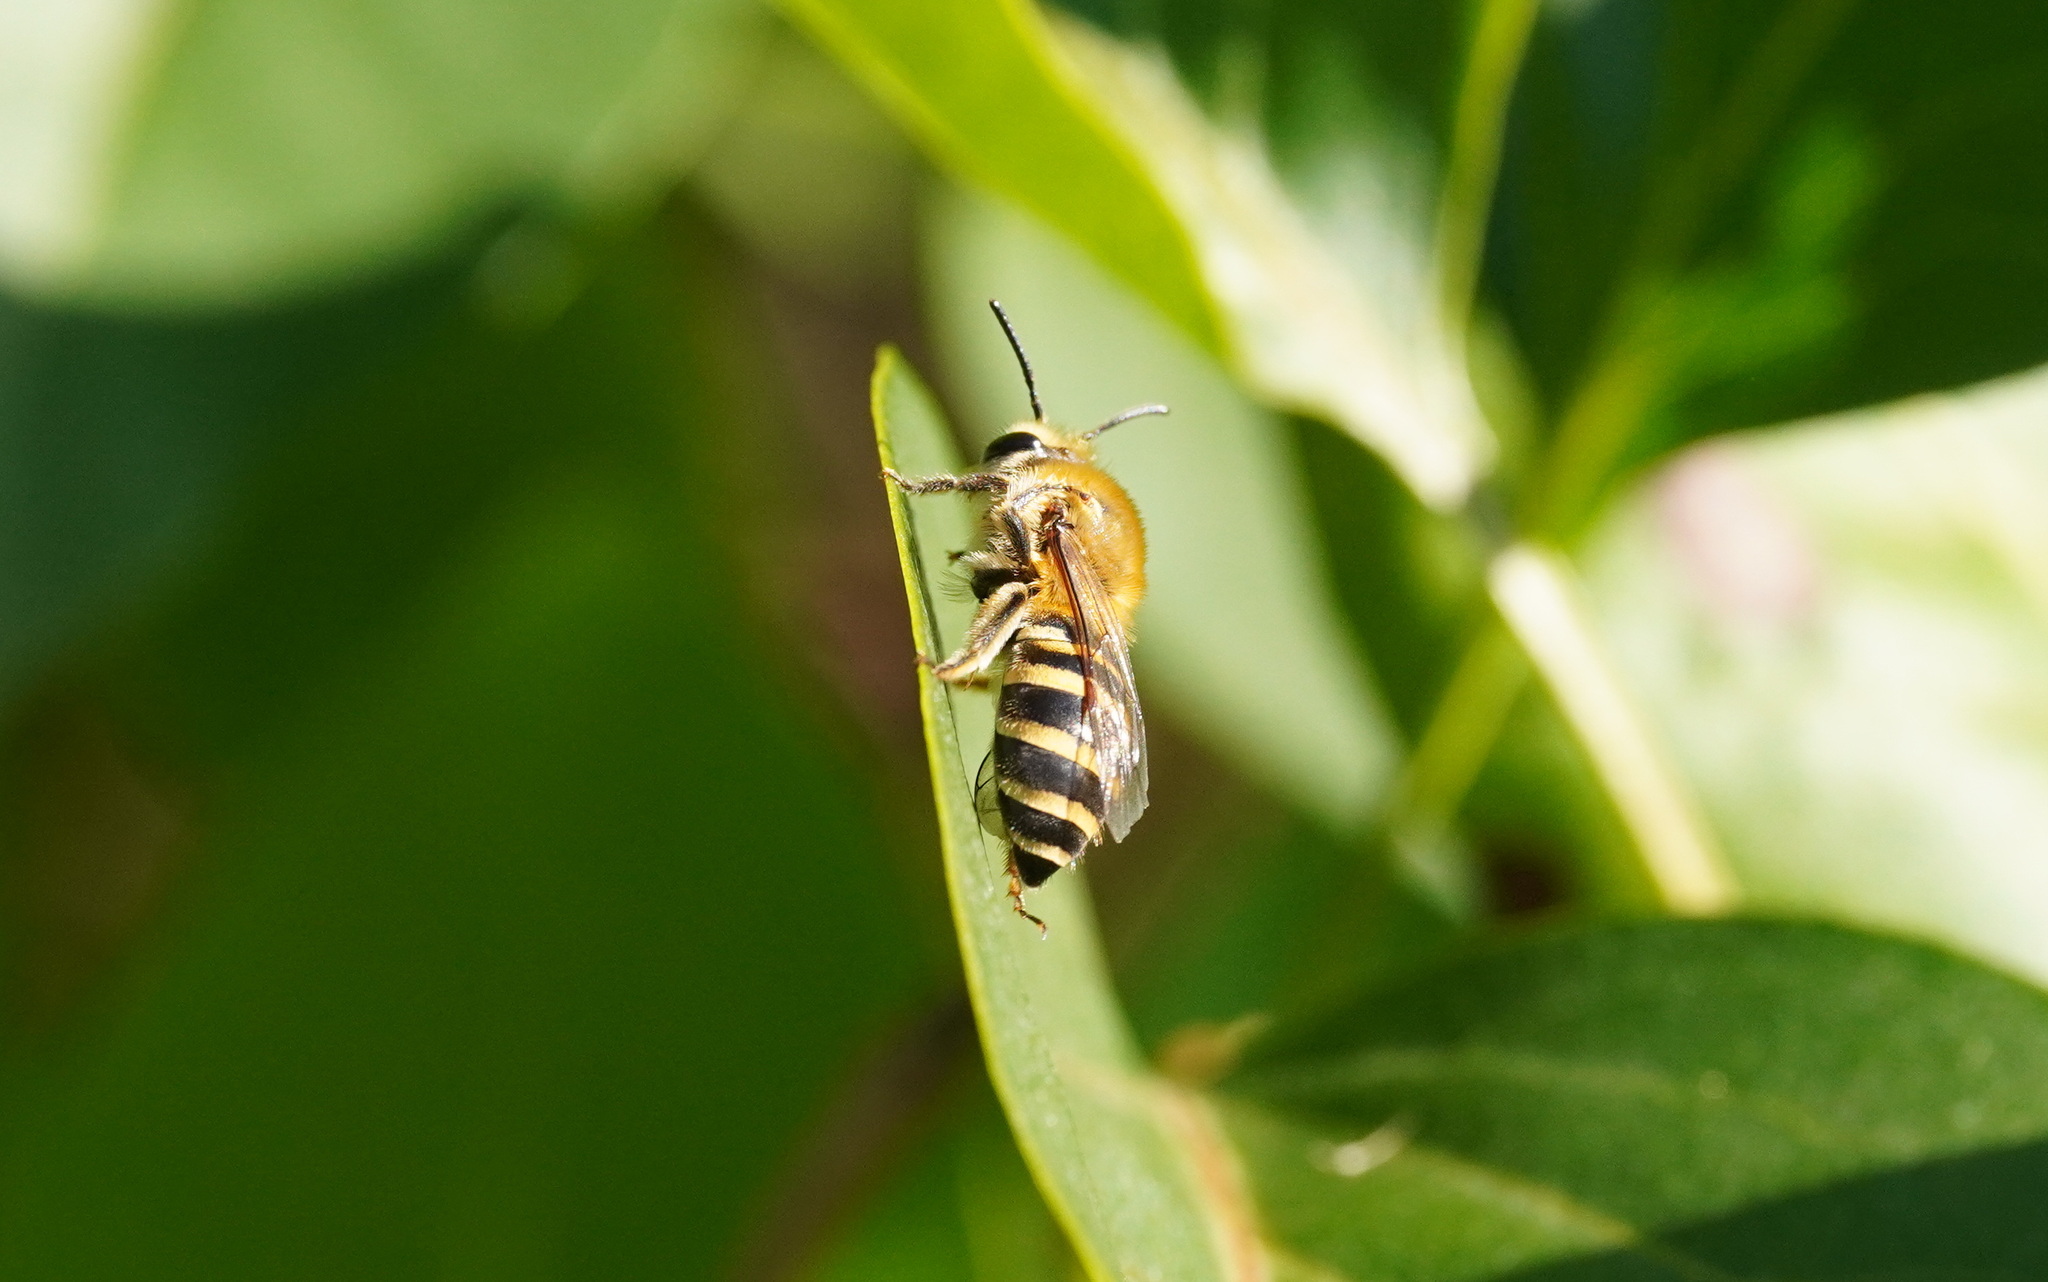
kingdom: Animalia
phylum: Arthropoda
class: Insecta
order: Hymenoptera
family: Colletidae
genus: Colletes
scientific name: Colletes hederae
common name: Ivy bee
